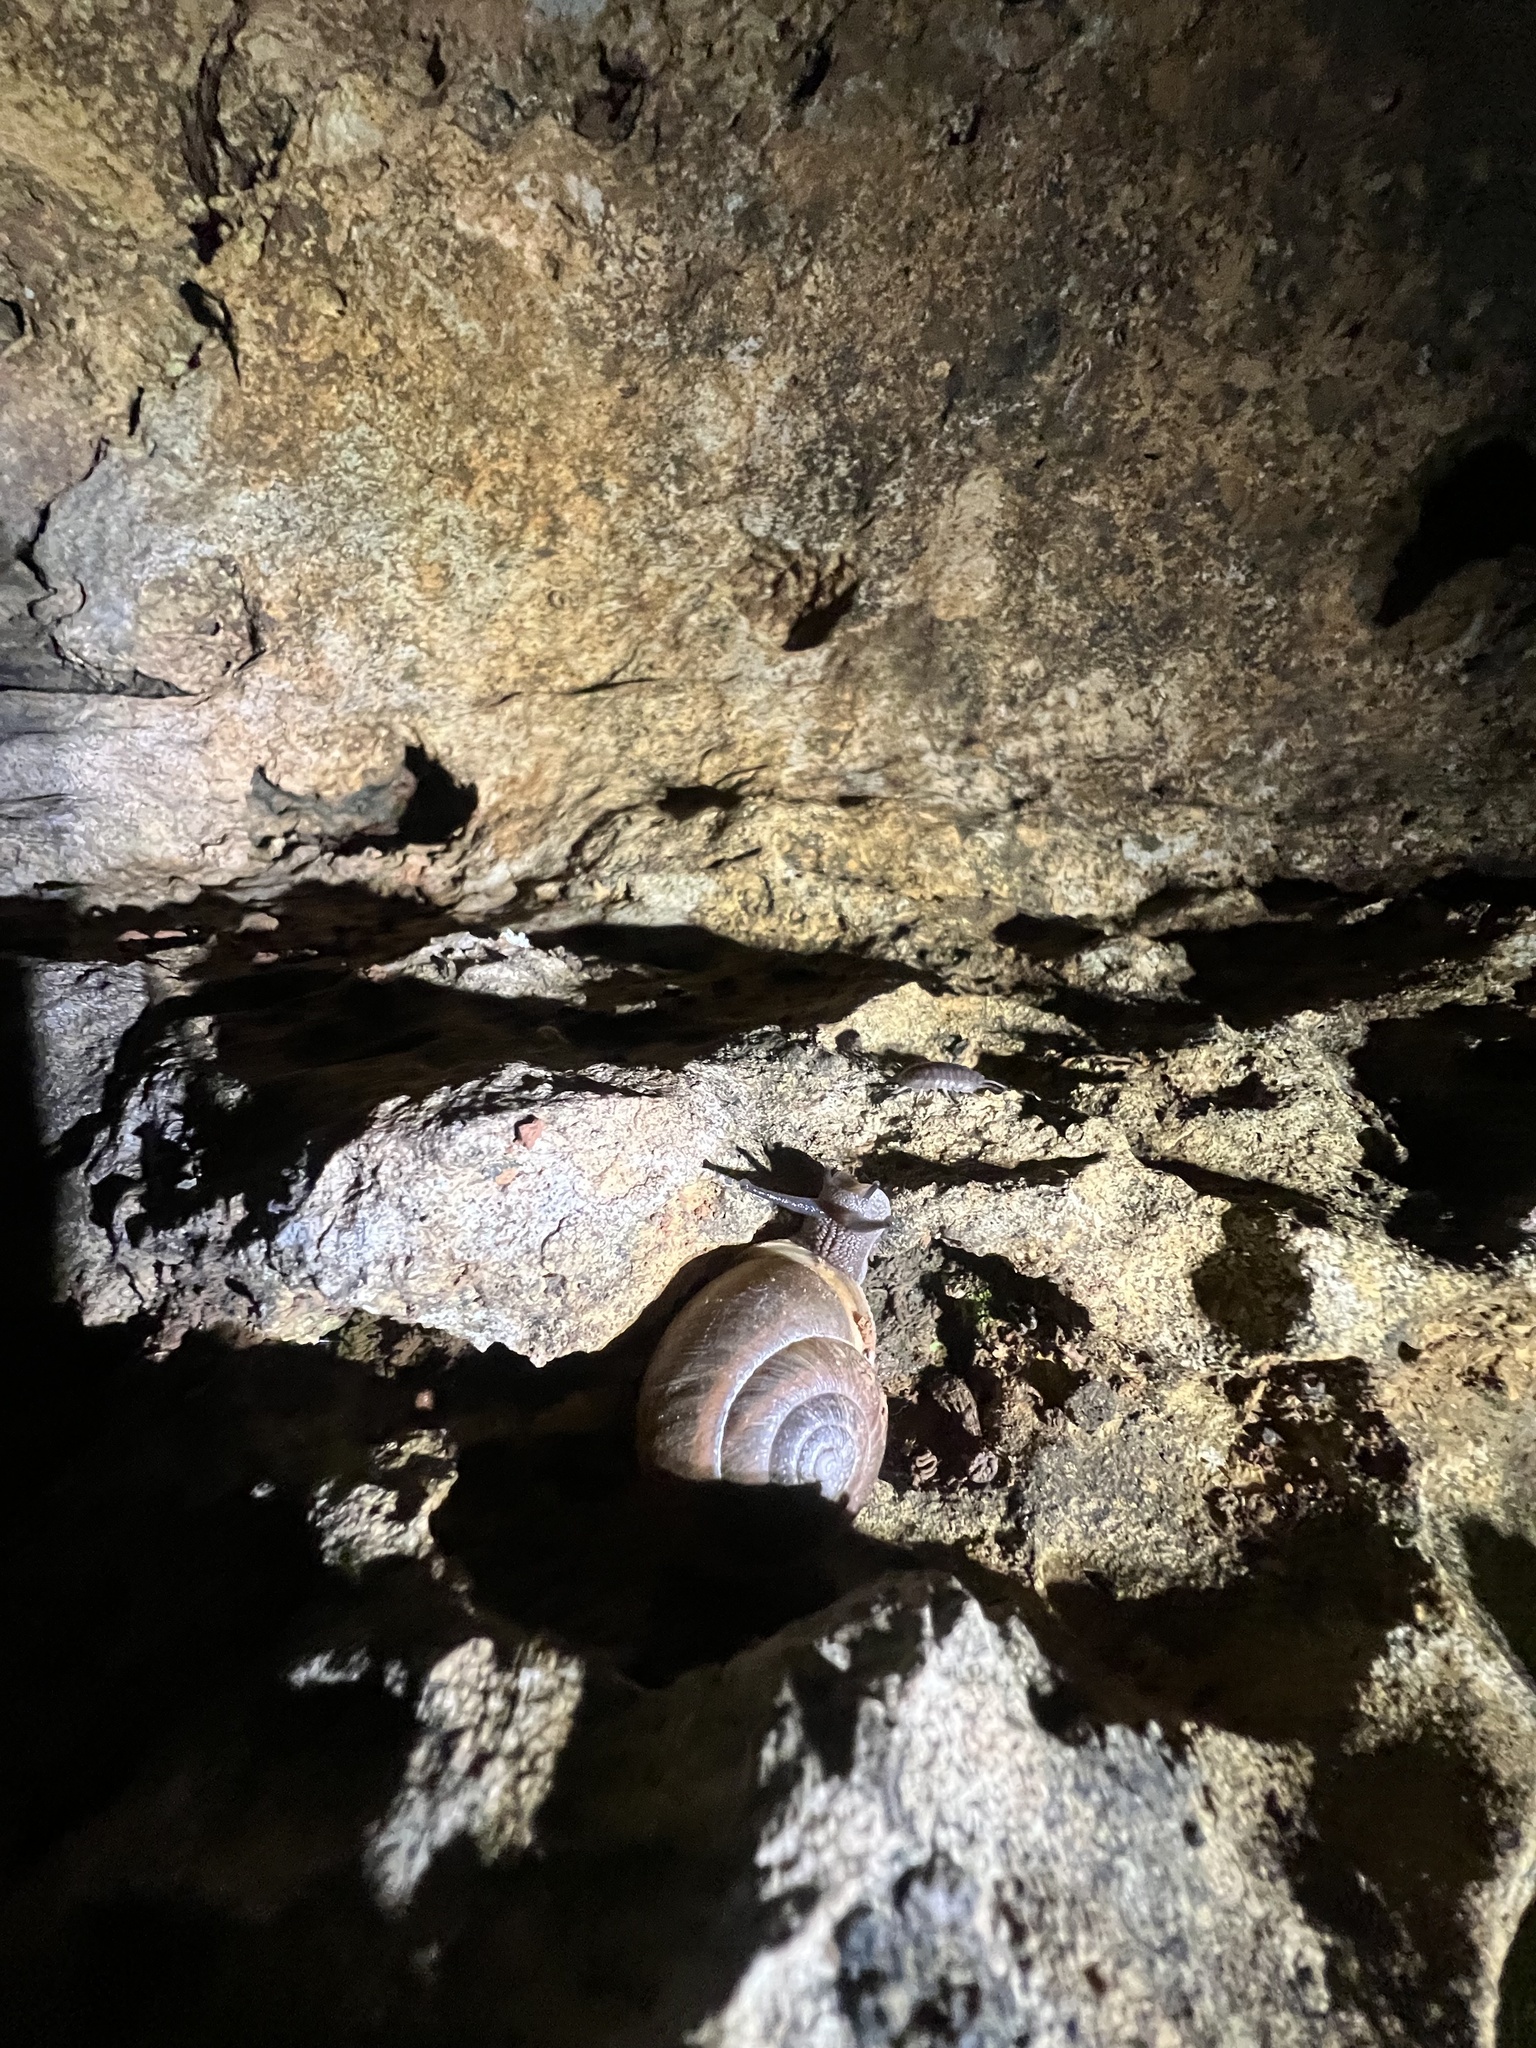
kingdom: Animalia
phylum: Mollusca
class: Gastropoda
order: Stylommatophora
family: Polygyridae
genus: Mesodon
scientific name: Mesodon thyroidus
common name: White-lip globe
